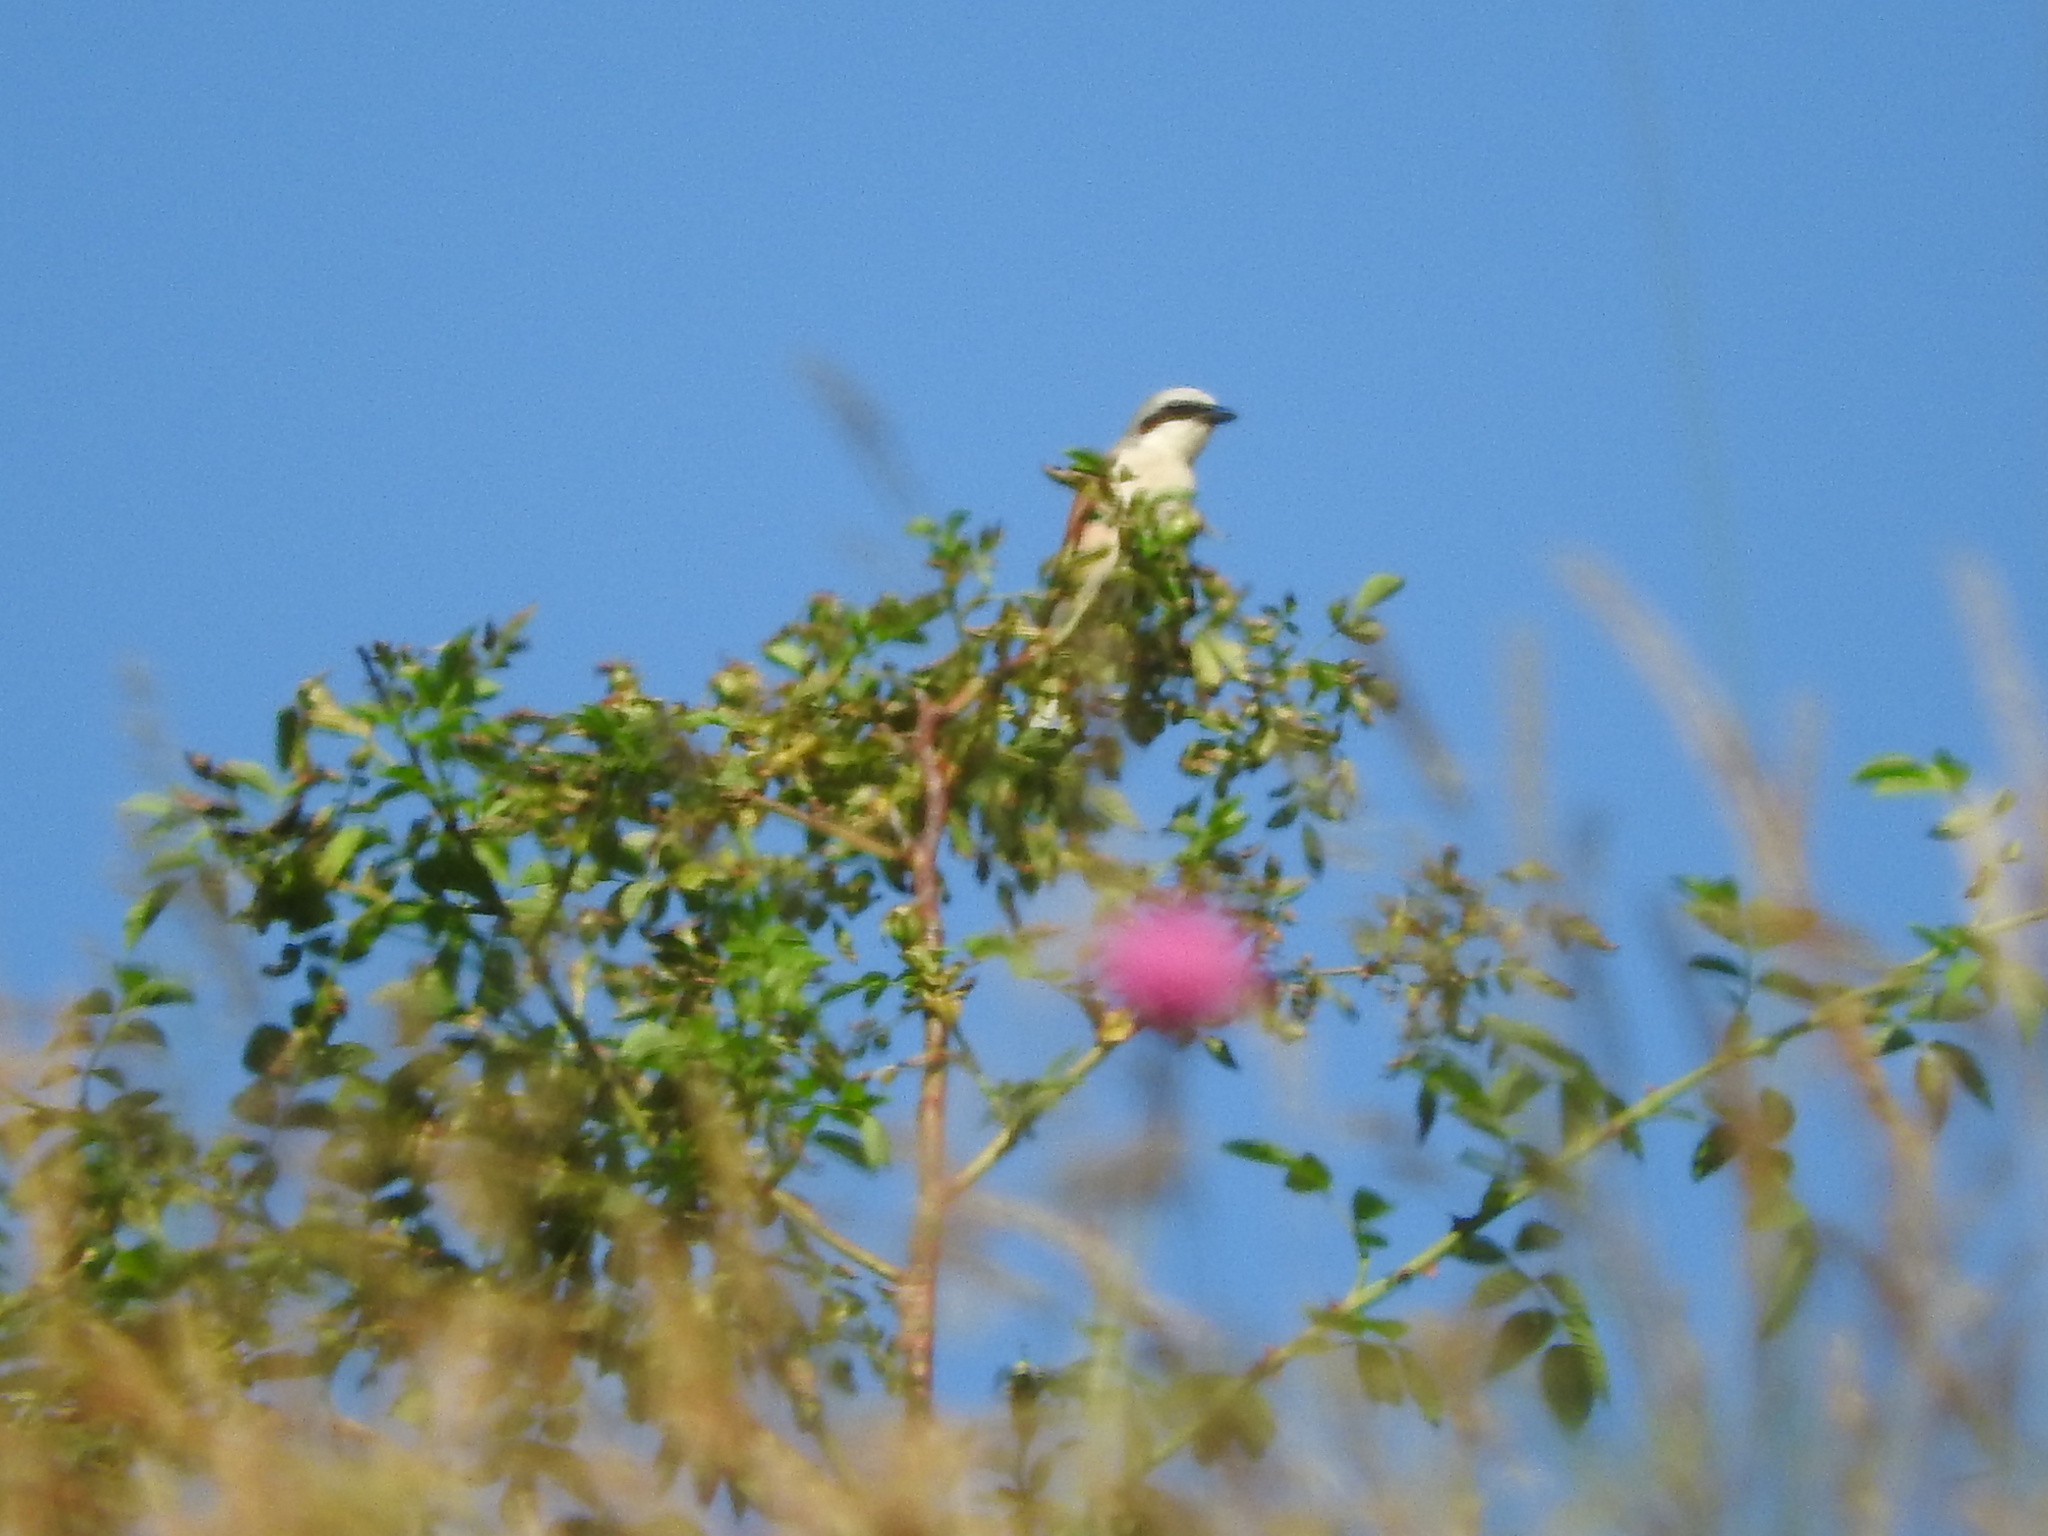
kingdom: Animalia
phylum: Chordata
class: Aves
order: Passeriformes
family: Laniidae
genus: Lanius
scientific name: Lanius collurio
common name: Red-backed shrike
